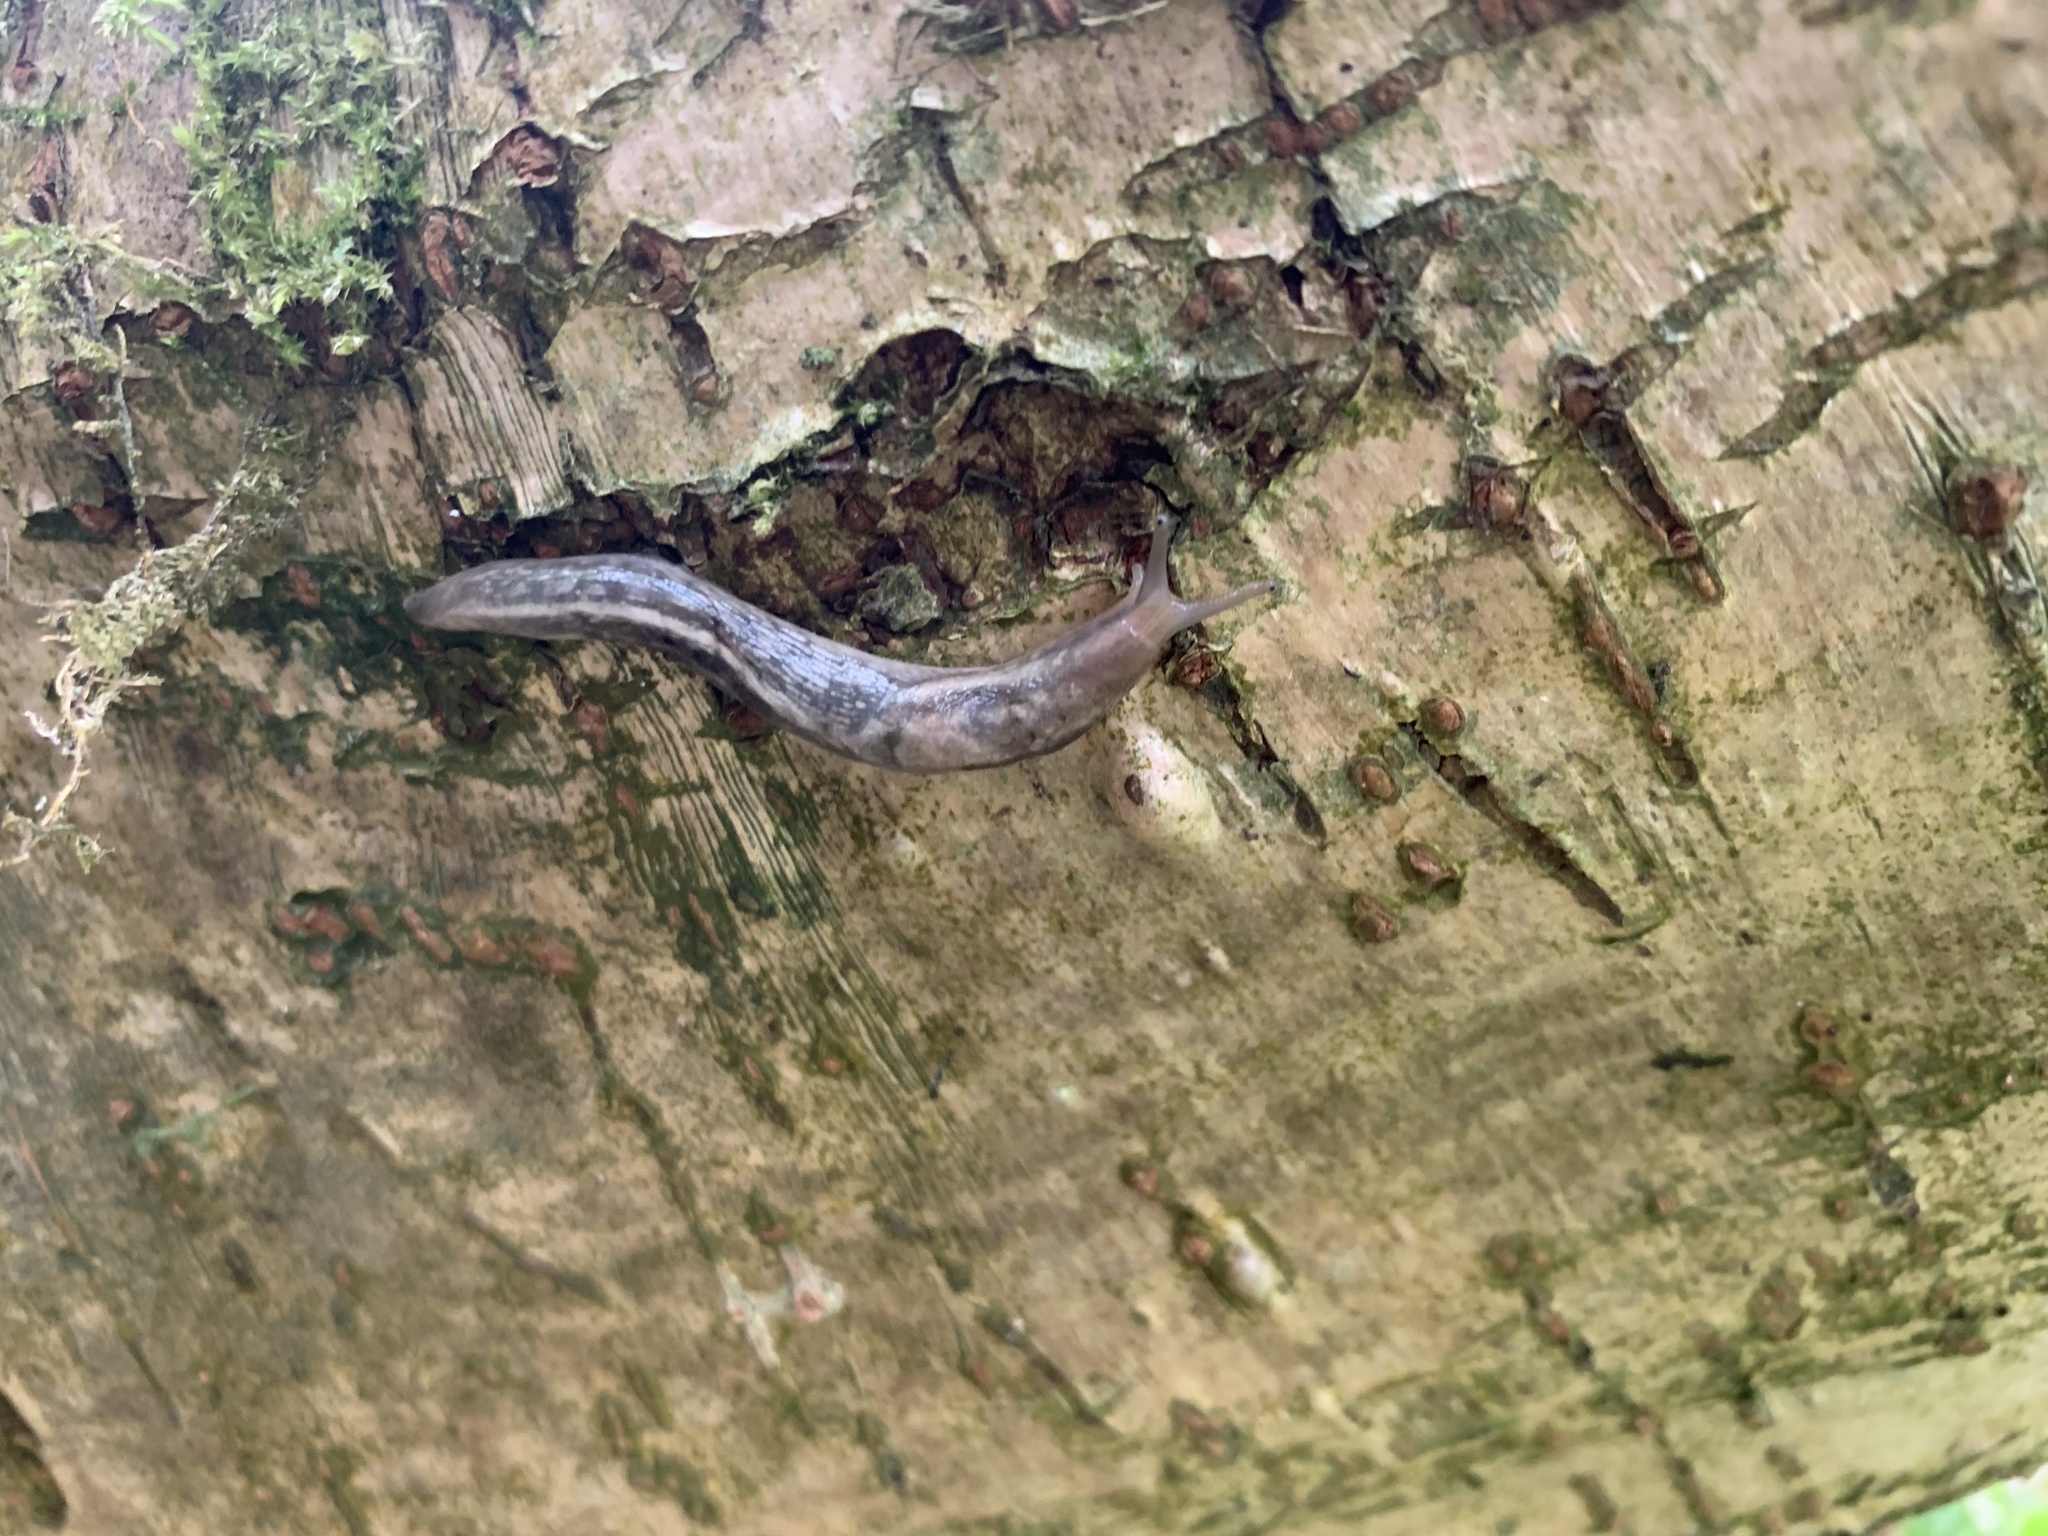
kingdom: Animalia
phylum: Mollusca
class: Gastropoda
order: Stylommatophora
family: Limacidae
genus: Lehmannia
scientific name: Lehmannia marginata
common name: Tree slug
